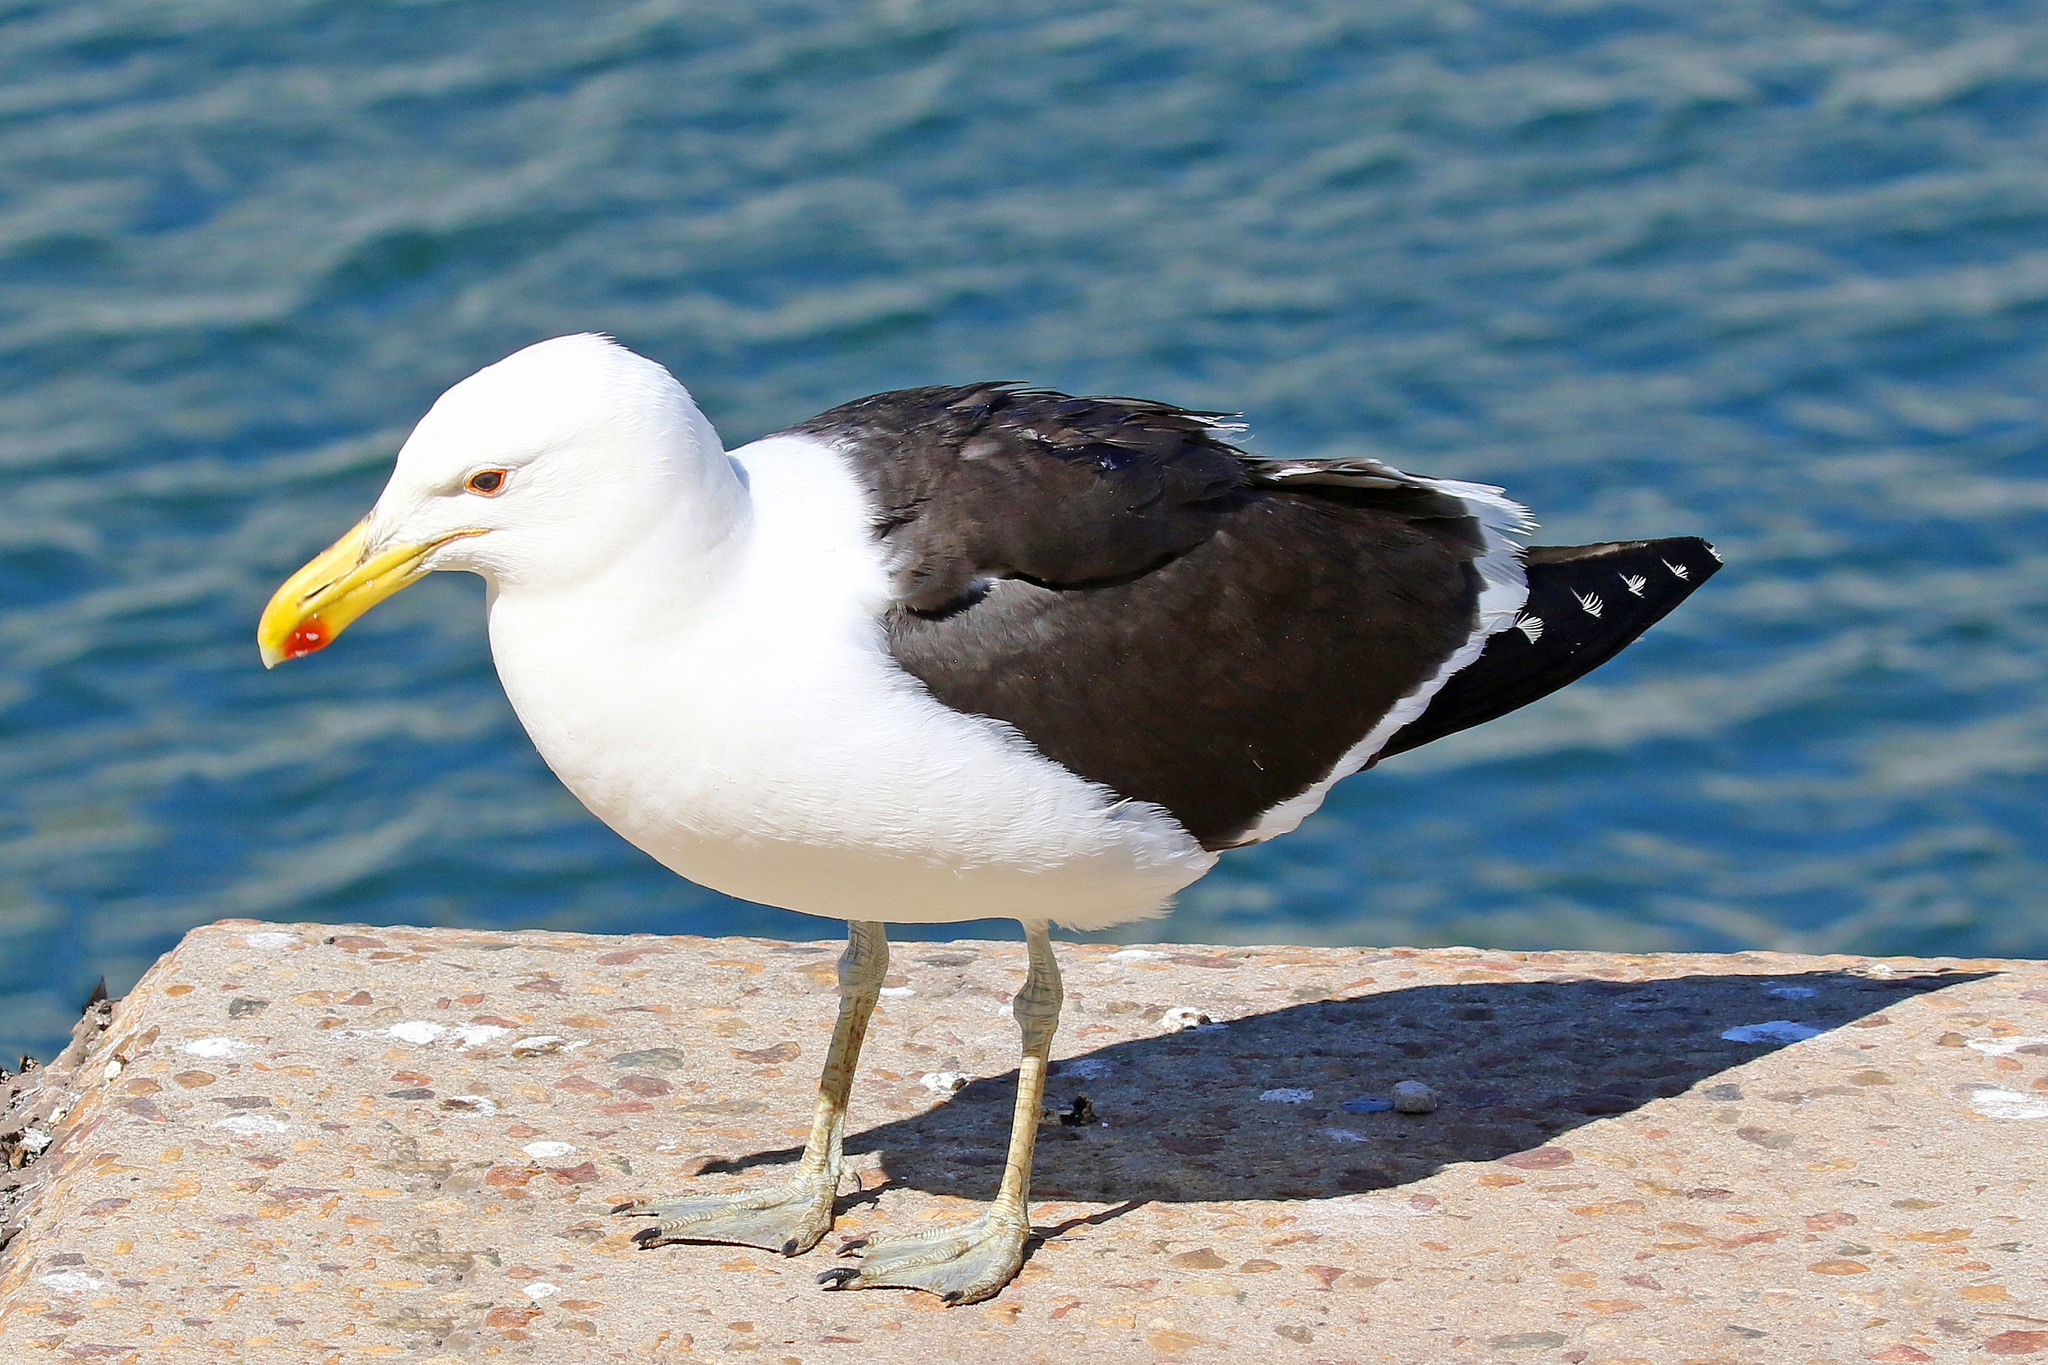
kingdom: Animalia
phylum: Chordata
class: Aves
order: Charadriiformes
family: Laridae
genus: Larus
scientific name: Larus dominicanus
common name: Kelp gull
